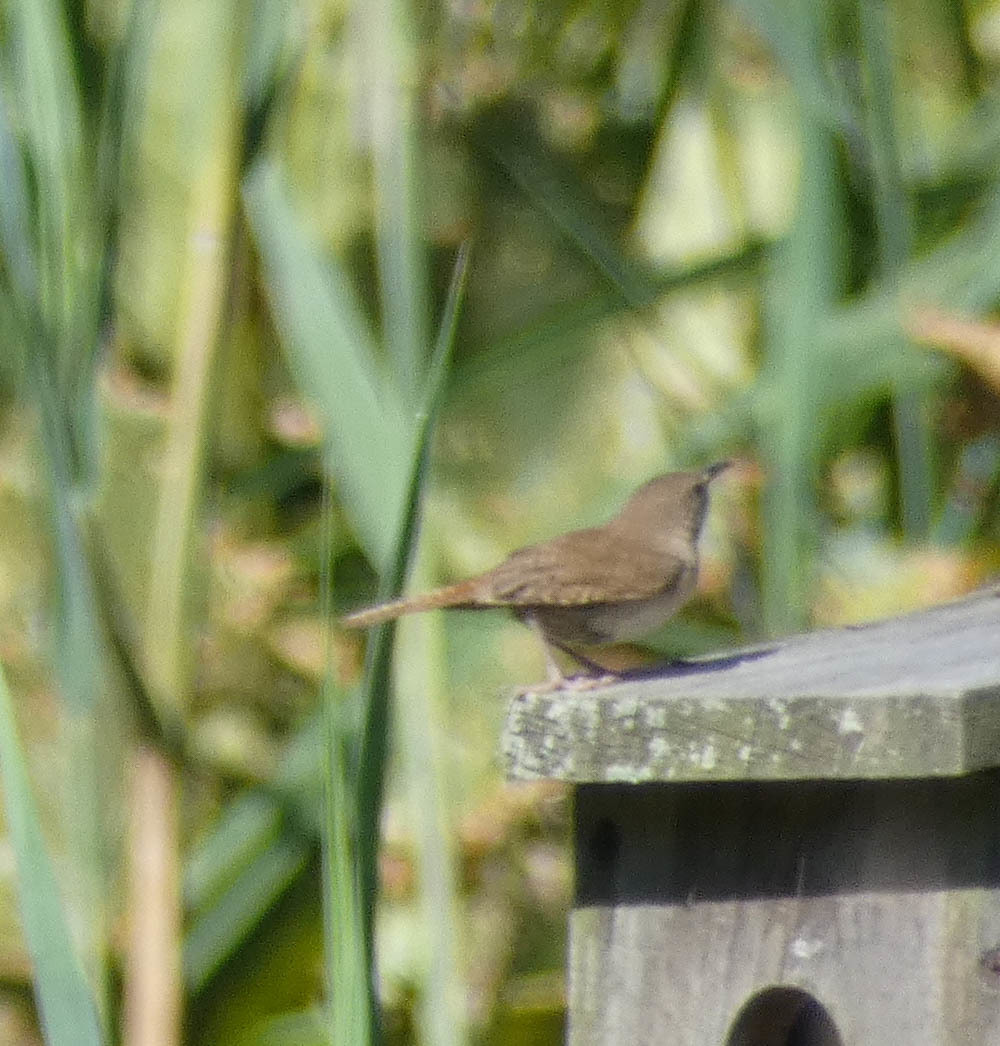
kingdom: Animalia
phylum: Chordata
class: Aves
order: Passeriformes
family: Troglodytidae
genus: Troglodytes
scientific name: Troglodytes aedon
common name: House wren
